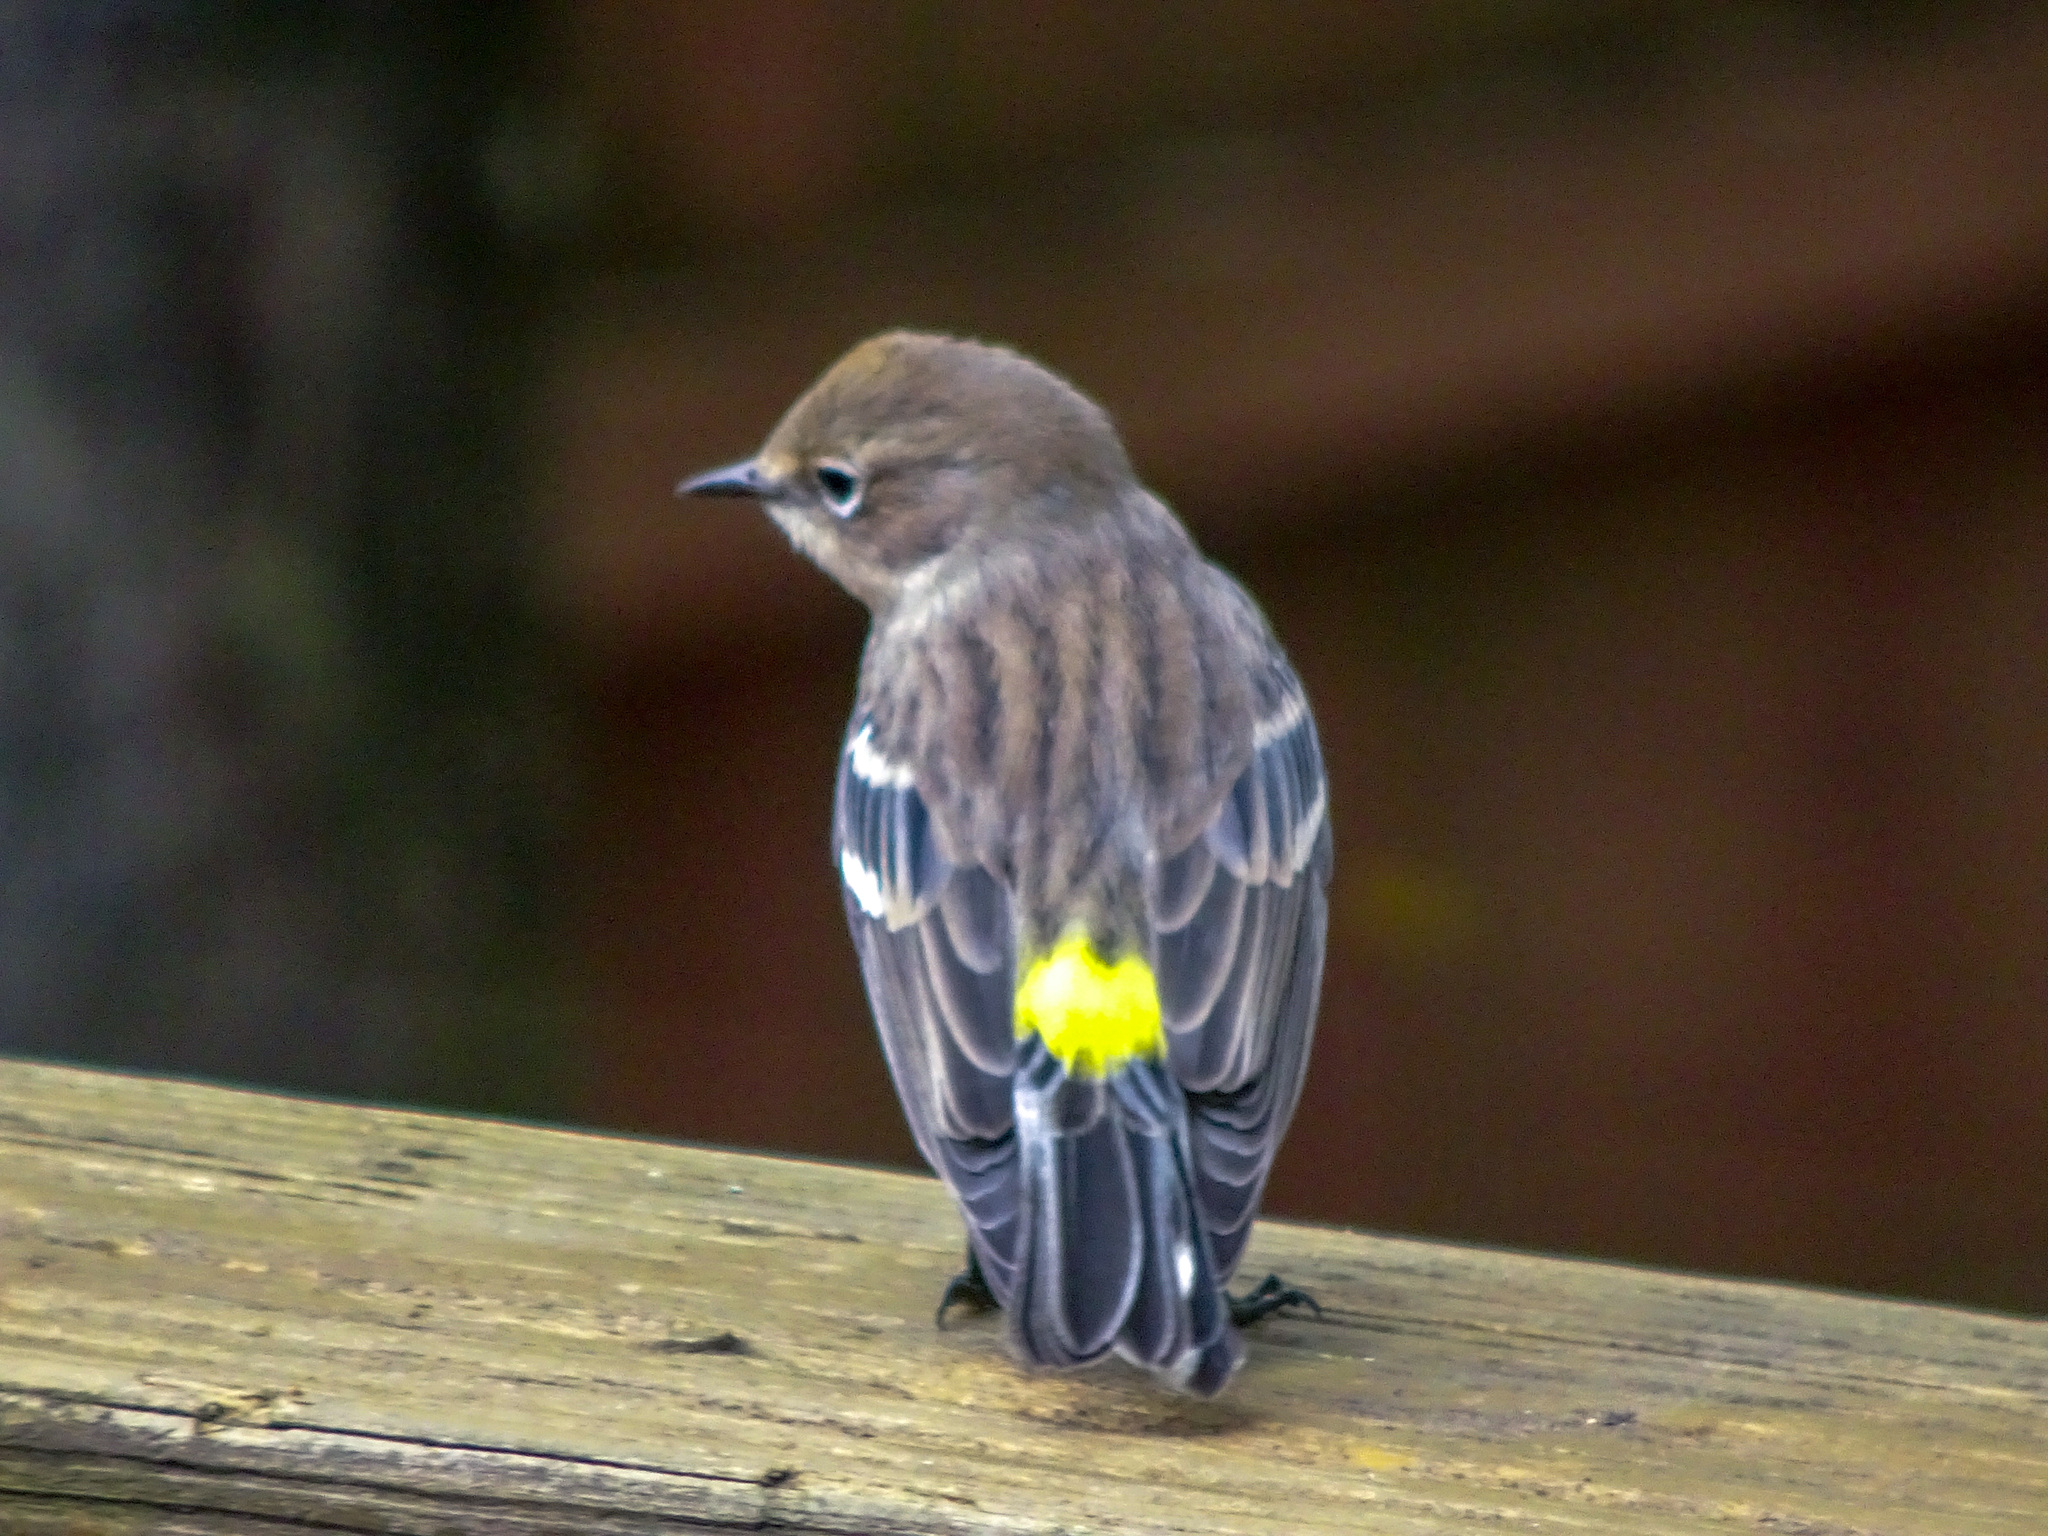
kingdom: Animalia
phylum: Chordata
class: Aves
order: Passeriformes
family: Parulidae
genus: Setophaga
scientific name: Setophaga coronata
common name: Myrtle warbler
